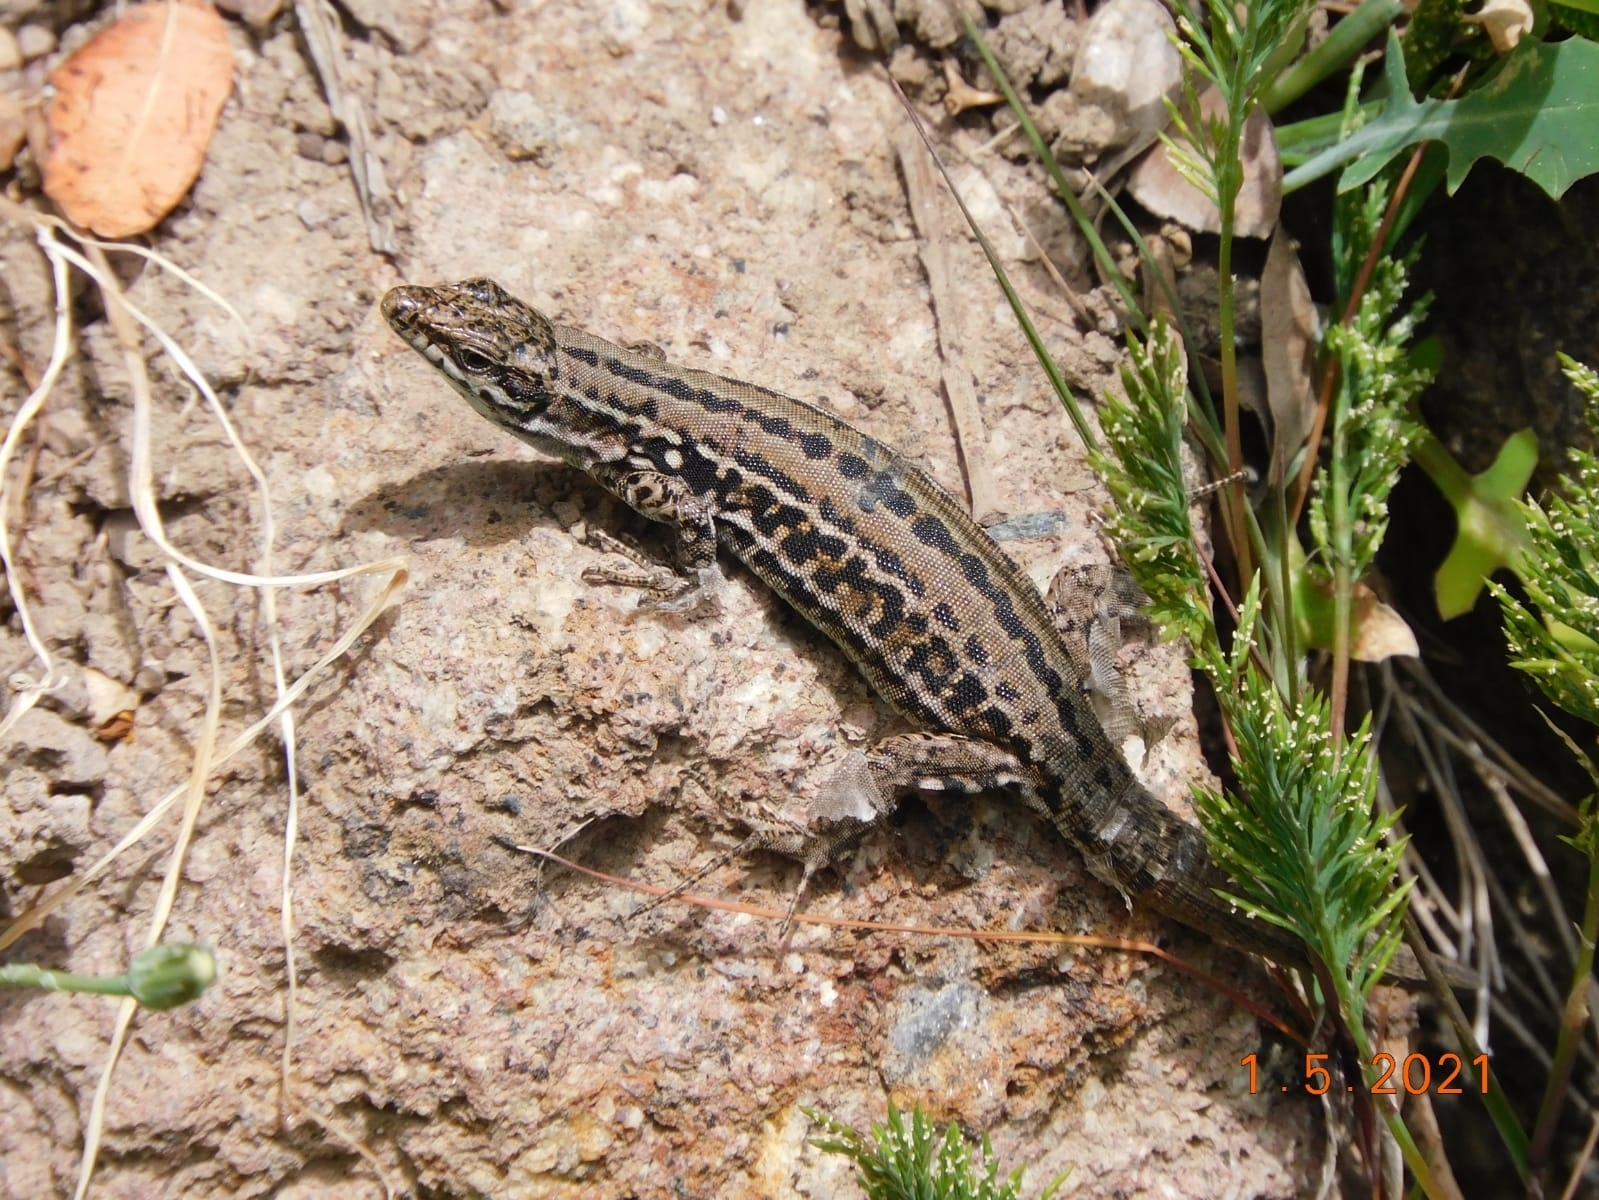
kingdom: Animalia
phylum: Chordata
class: Squamata
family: Lacertidae
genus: Podarcis
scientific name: Podarcis siculus
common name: Italian wall lizard
